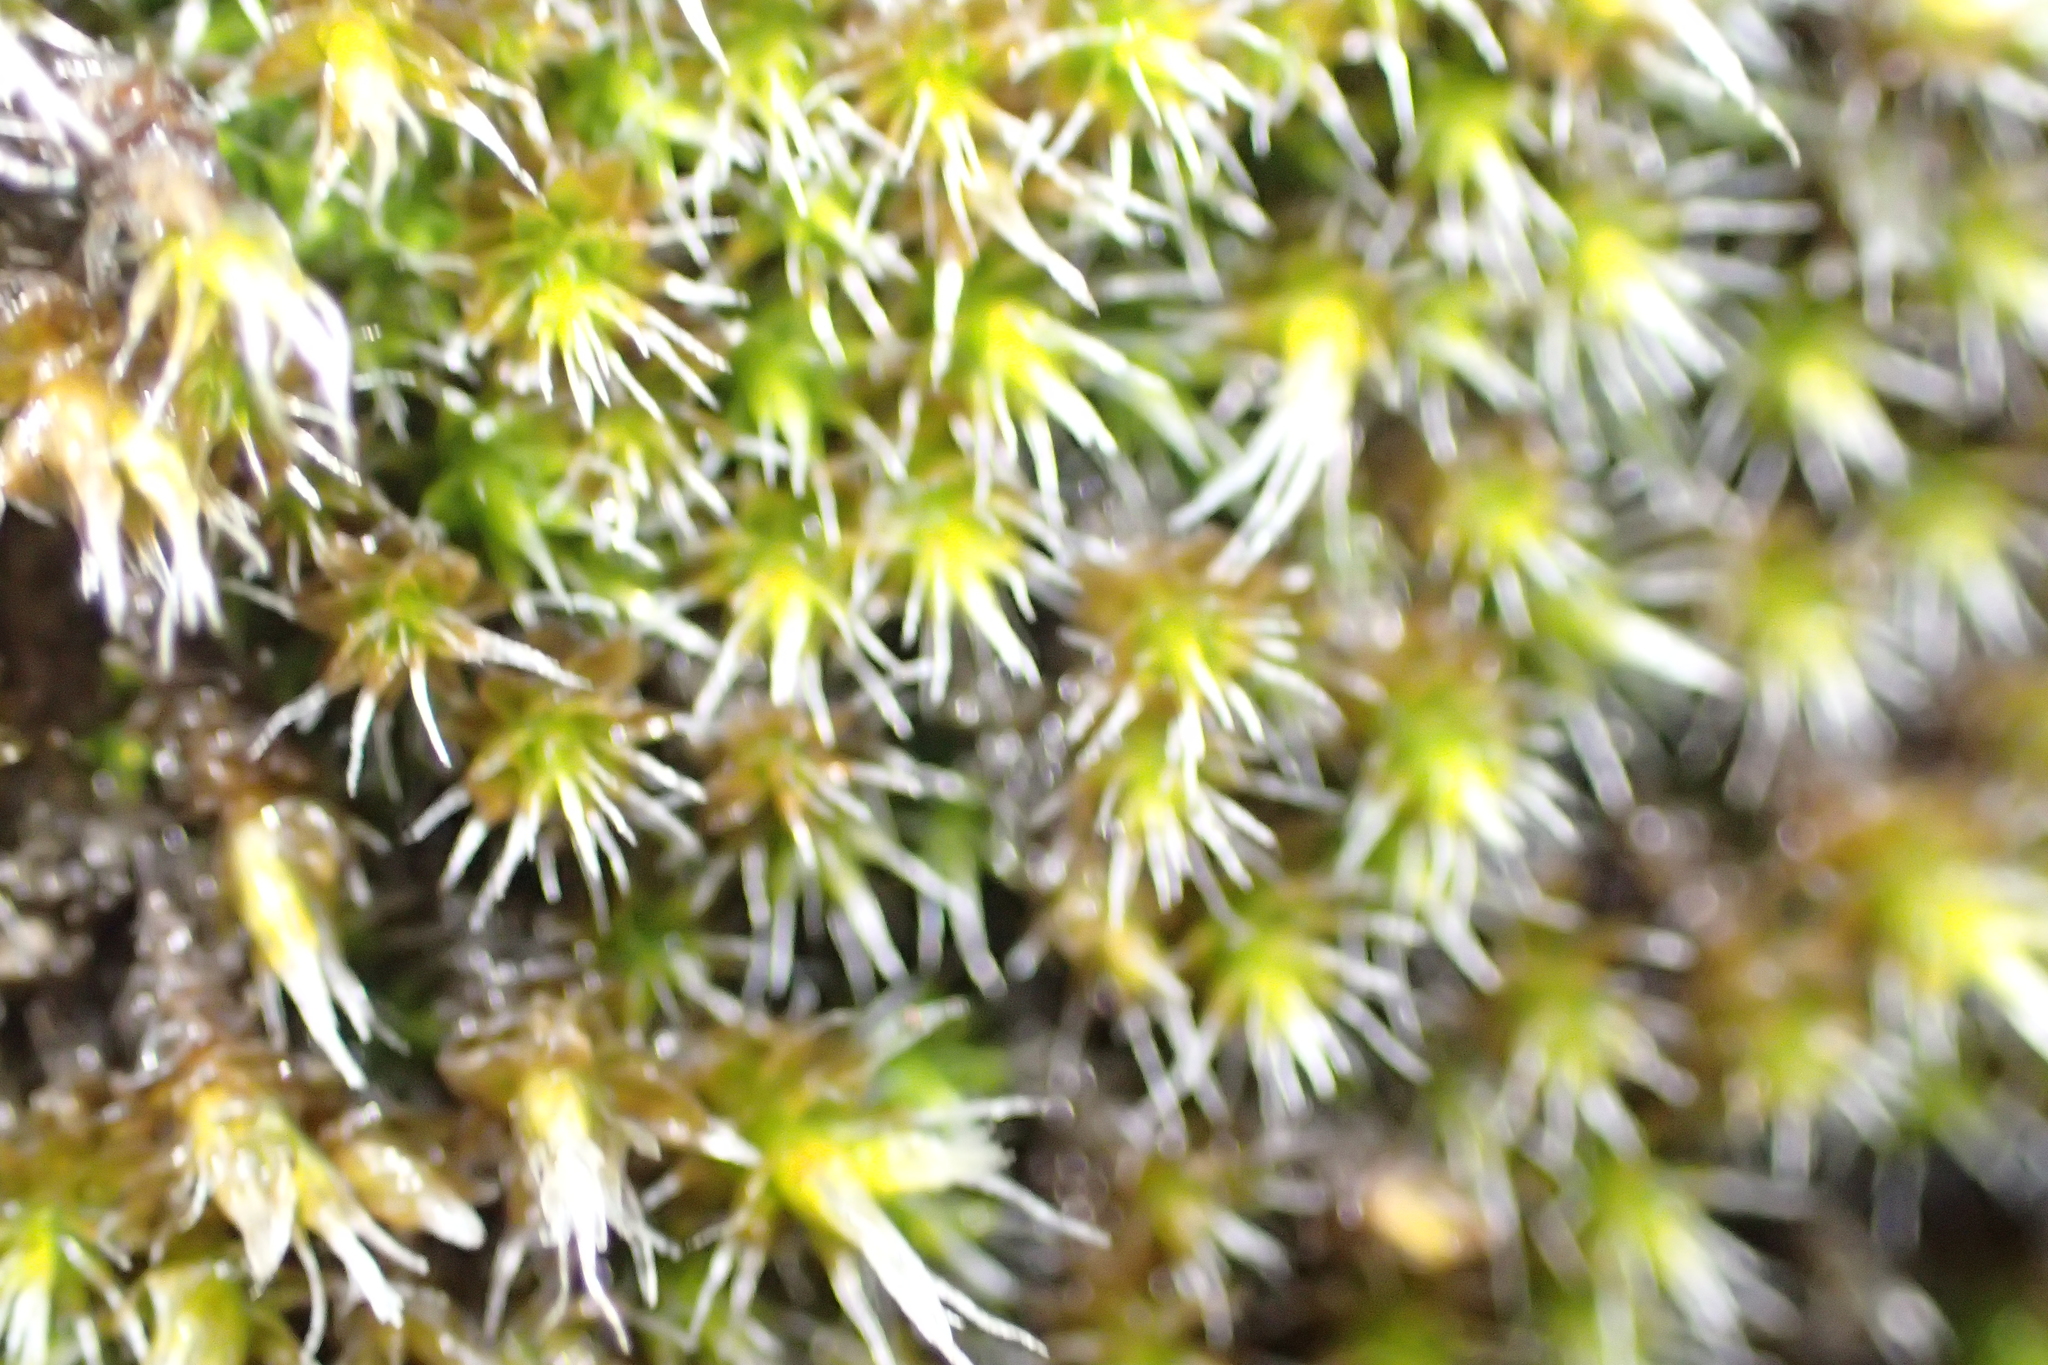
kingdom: Plantae
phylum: Bryophyta
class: Bryopsida
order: Grimmiales
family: Grimmiaceae
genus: Grimmia
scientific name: Grimmia laevigata
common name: Hoary grimmia
